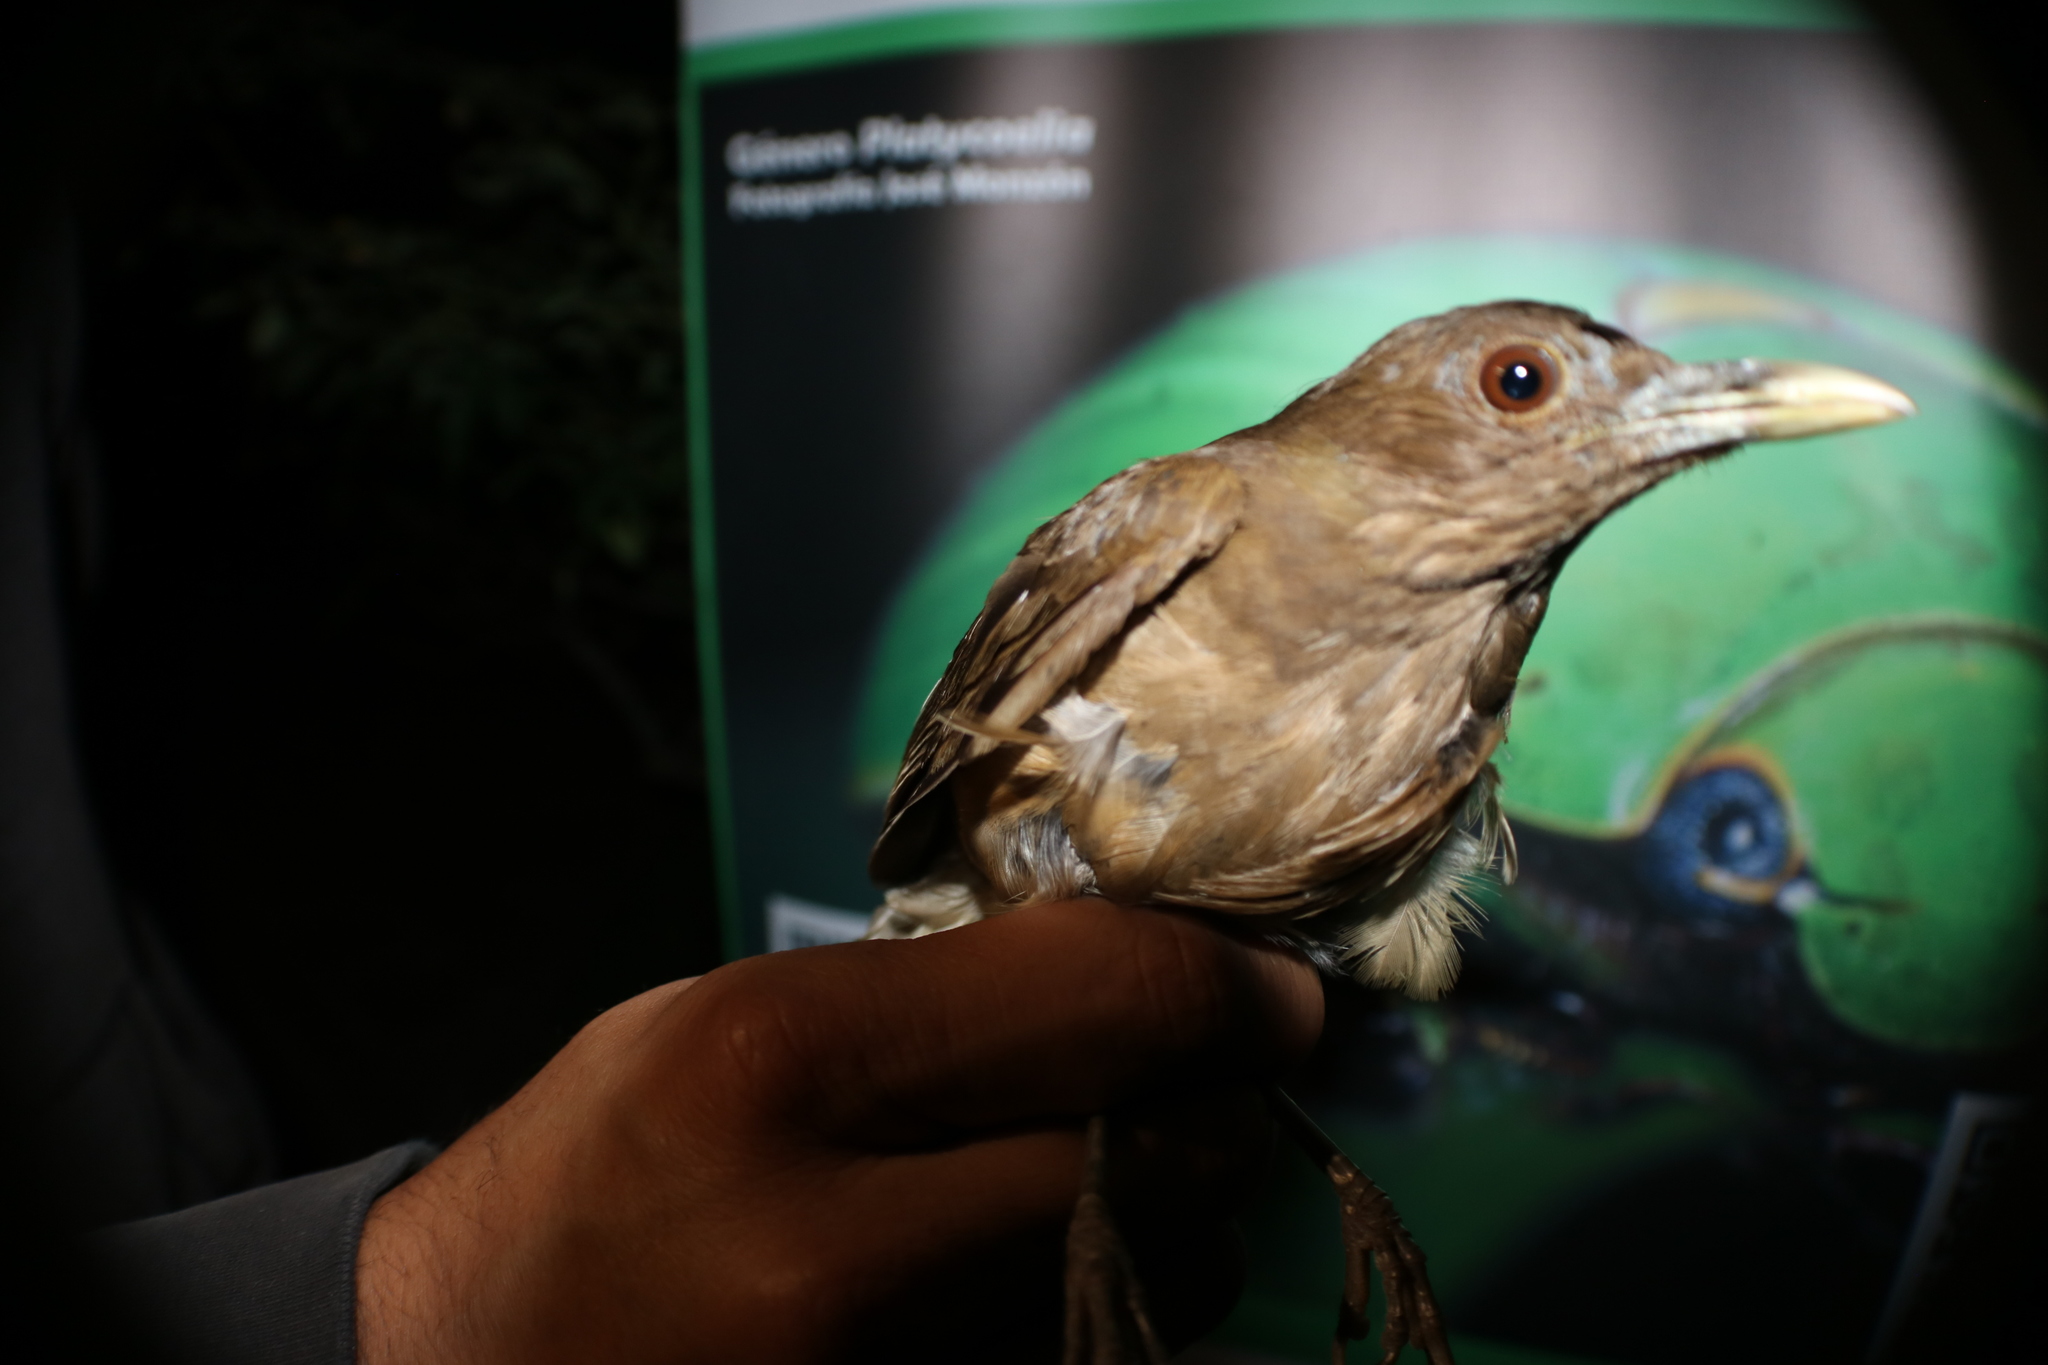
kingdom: Animalia
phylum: Chordata
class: Aves
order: Passeriformes
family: Turdidae
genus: Turdus
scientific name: Turdus grayi
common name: Clay-colored thrush
